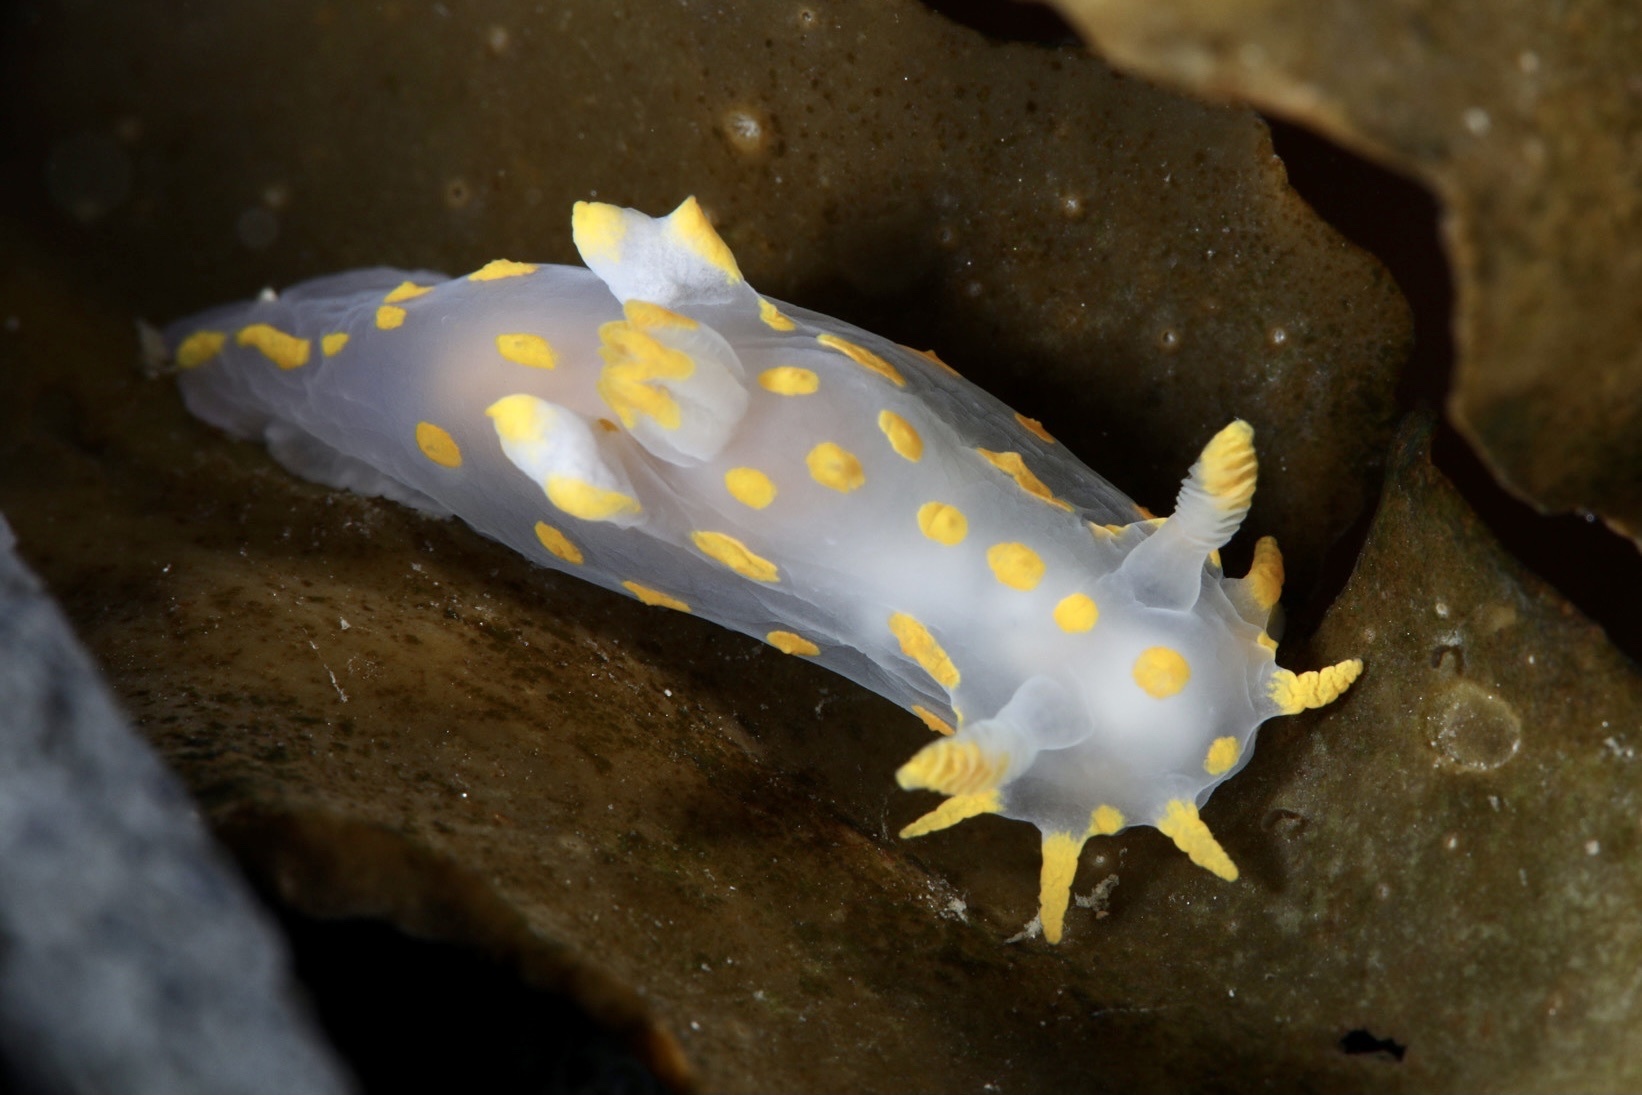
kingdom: Animalia
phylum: Mollusca
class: Gastropoda
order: Nudibranchia
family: Polyceridae
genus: Polycera
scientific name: Polycera quadrilineata
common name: Four-striped polycera
